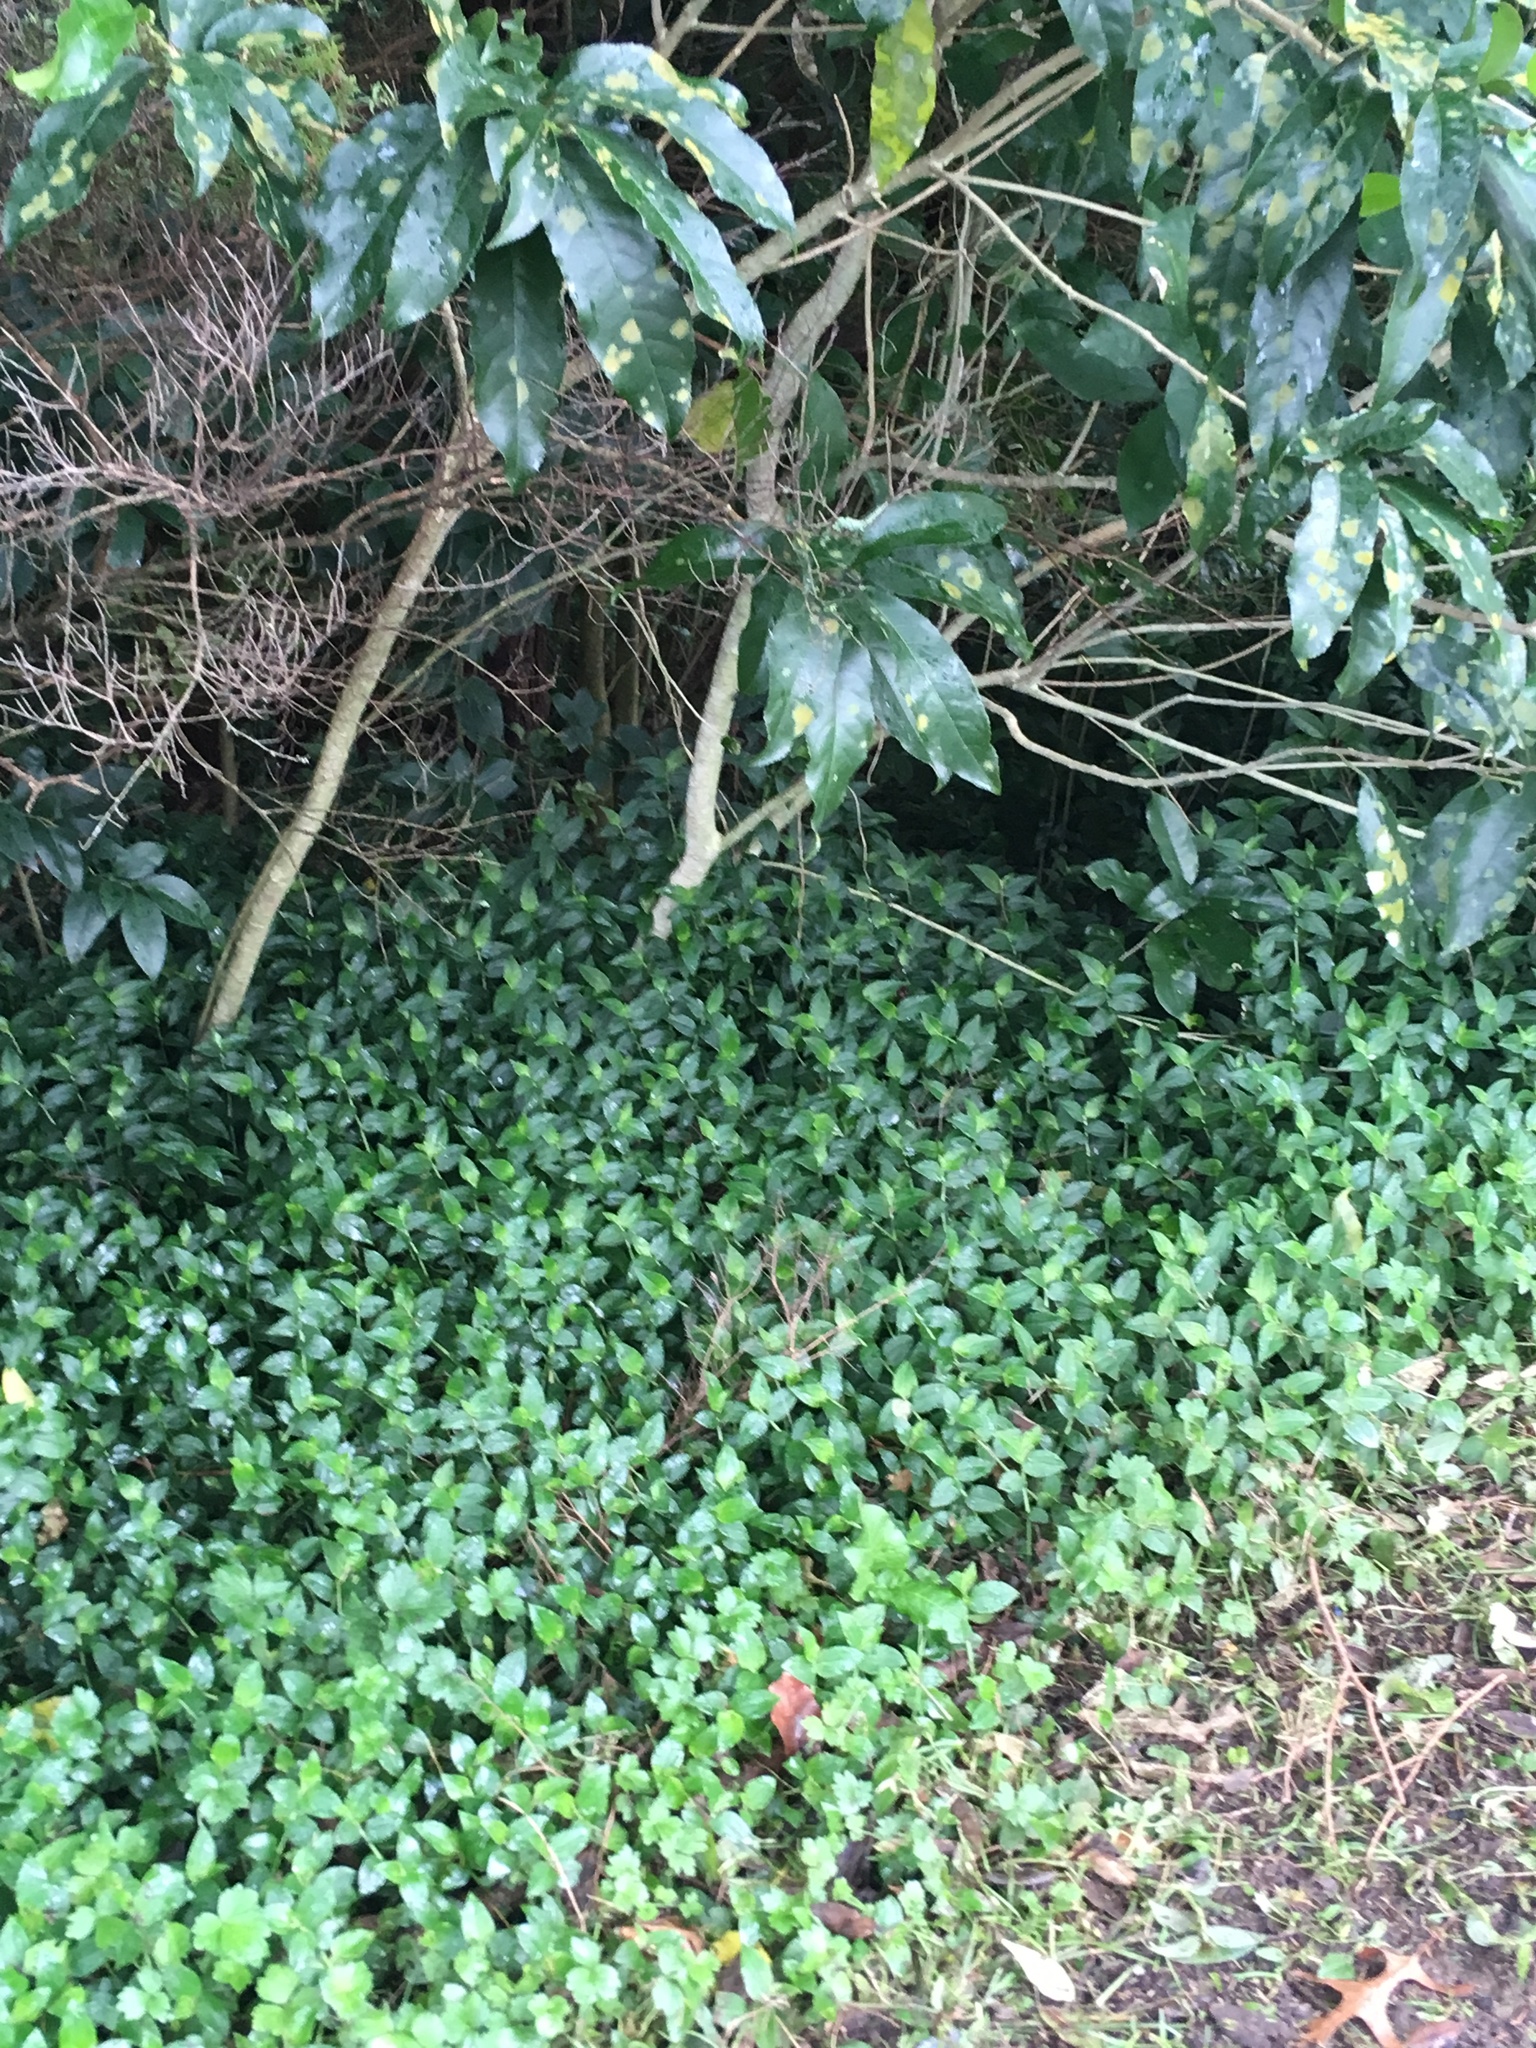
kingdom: Plantae
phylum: Tracheophyta
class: Liliopsida
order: Commelinales
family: Commelinaceae
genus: Tradescantia
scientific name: Tradescantia fluminensis
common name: Wandering-jew
